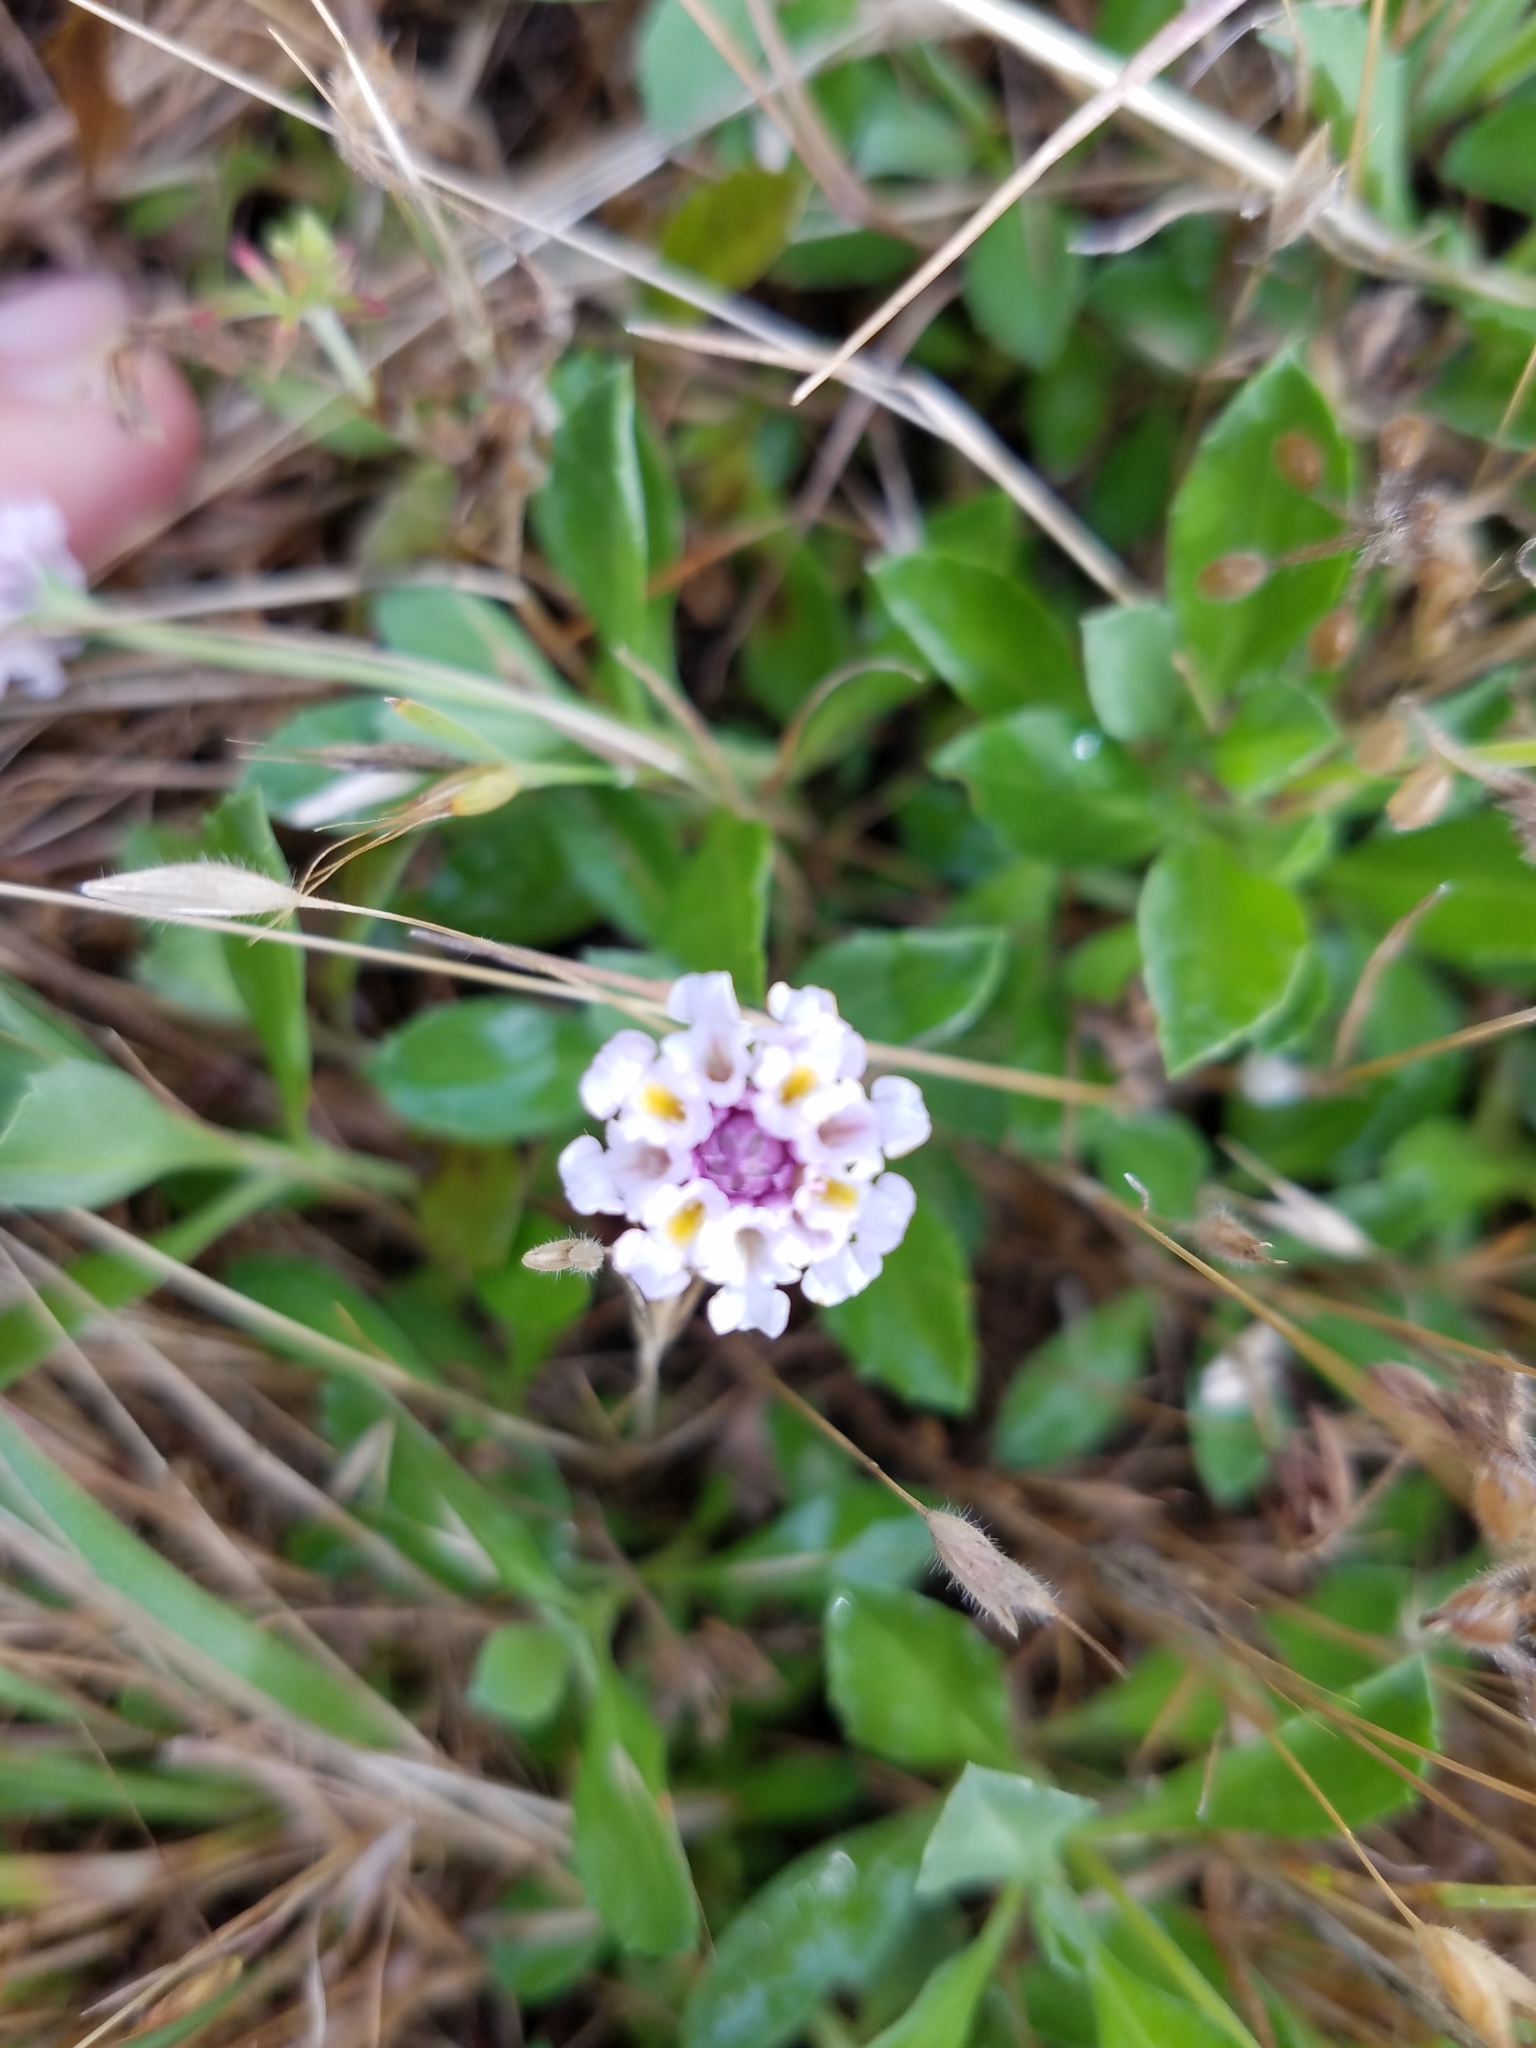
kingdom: Plantae
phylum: Tracheophyta
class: Magnoliopsida
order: Lamiales
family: Verbenaceae
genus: Phyla
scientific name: Phyla nodiflora
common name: Frogfruit
